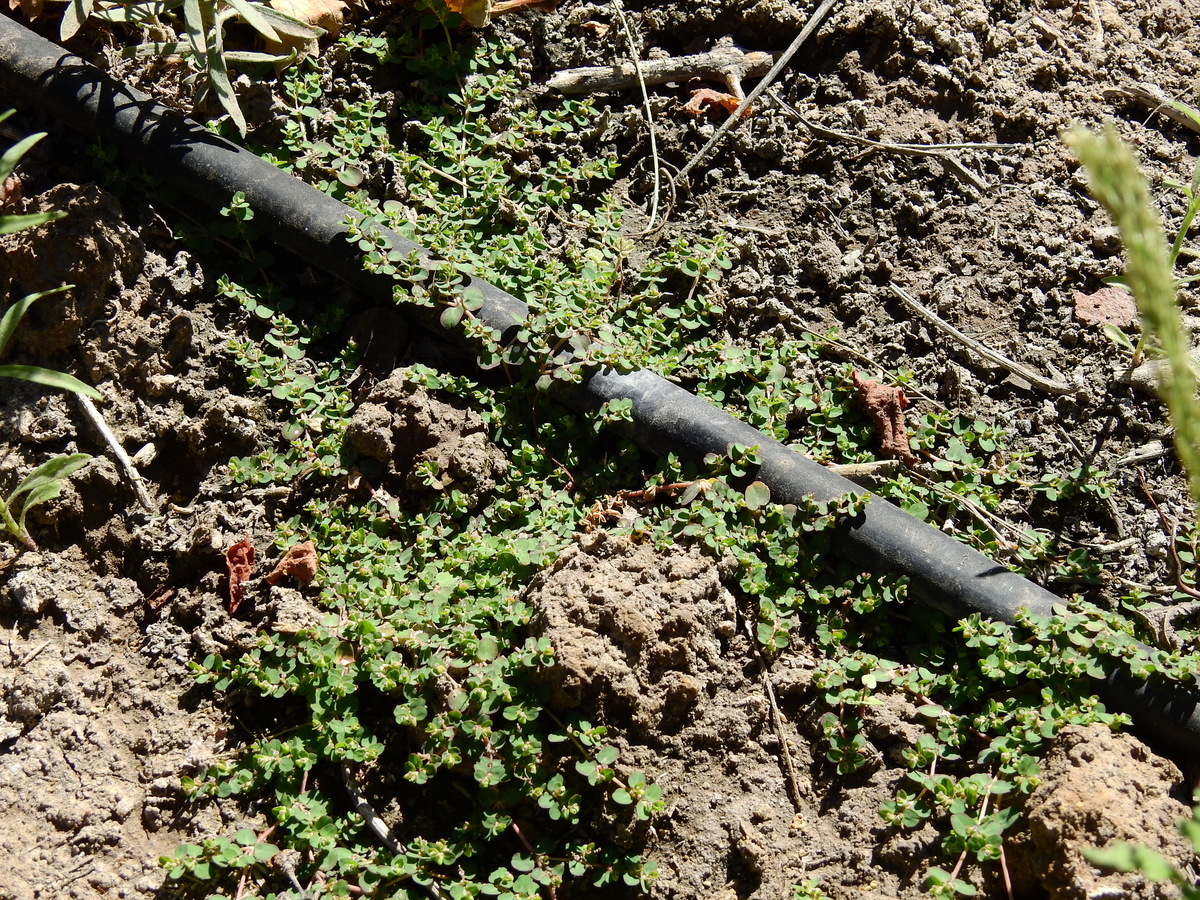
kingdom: Plantae
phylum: Tracheophyta
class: Magnoliopsida
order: Malpighiales
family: Euphorbiaceae
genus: Euphorbia
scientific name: Euphorbia serpens
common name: Matted sandmat
